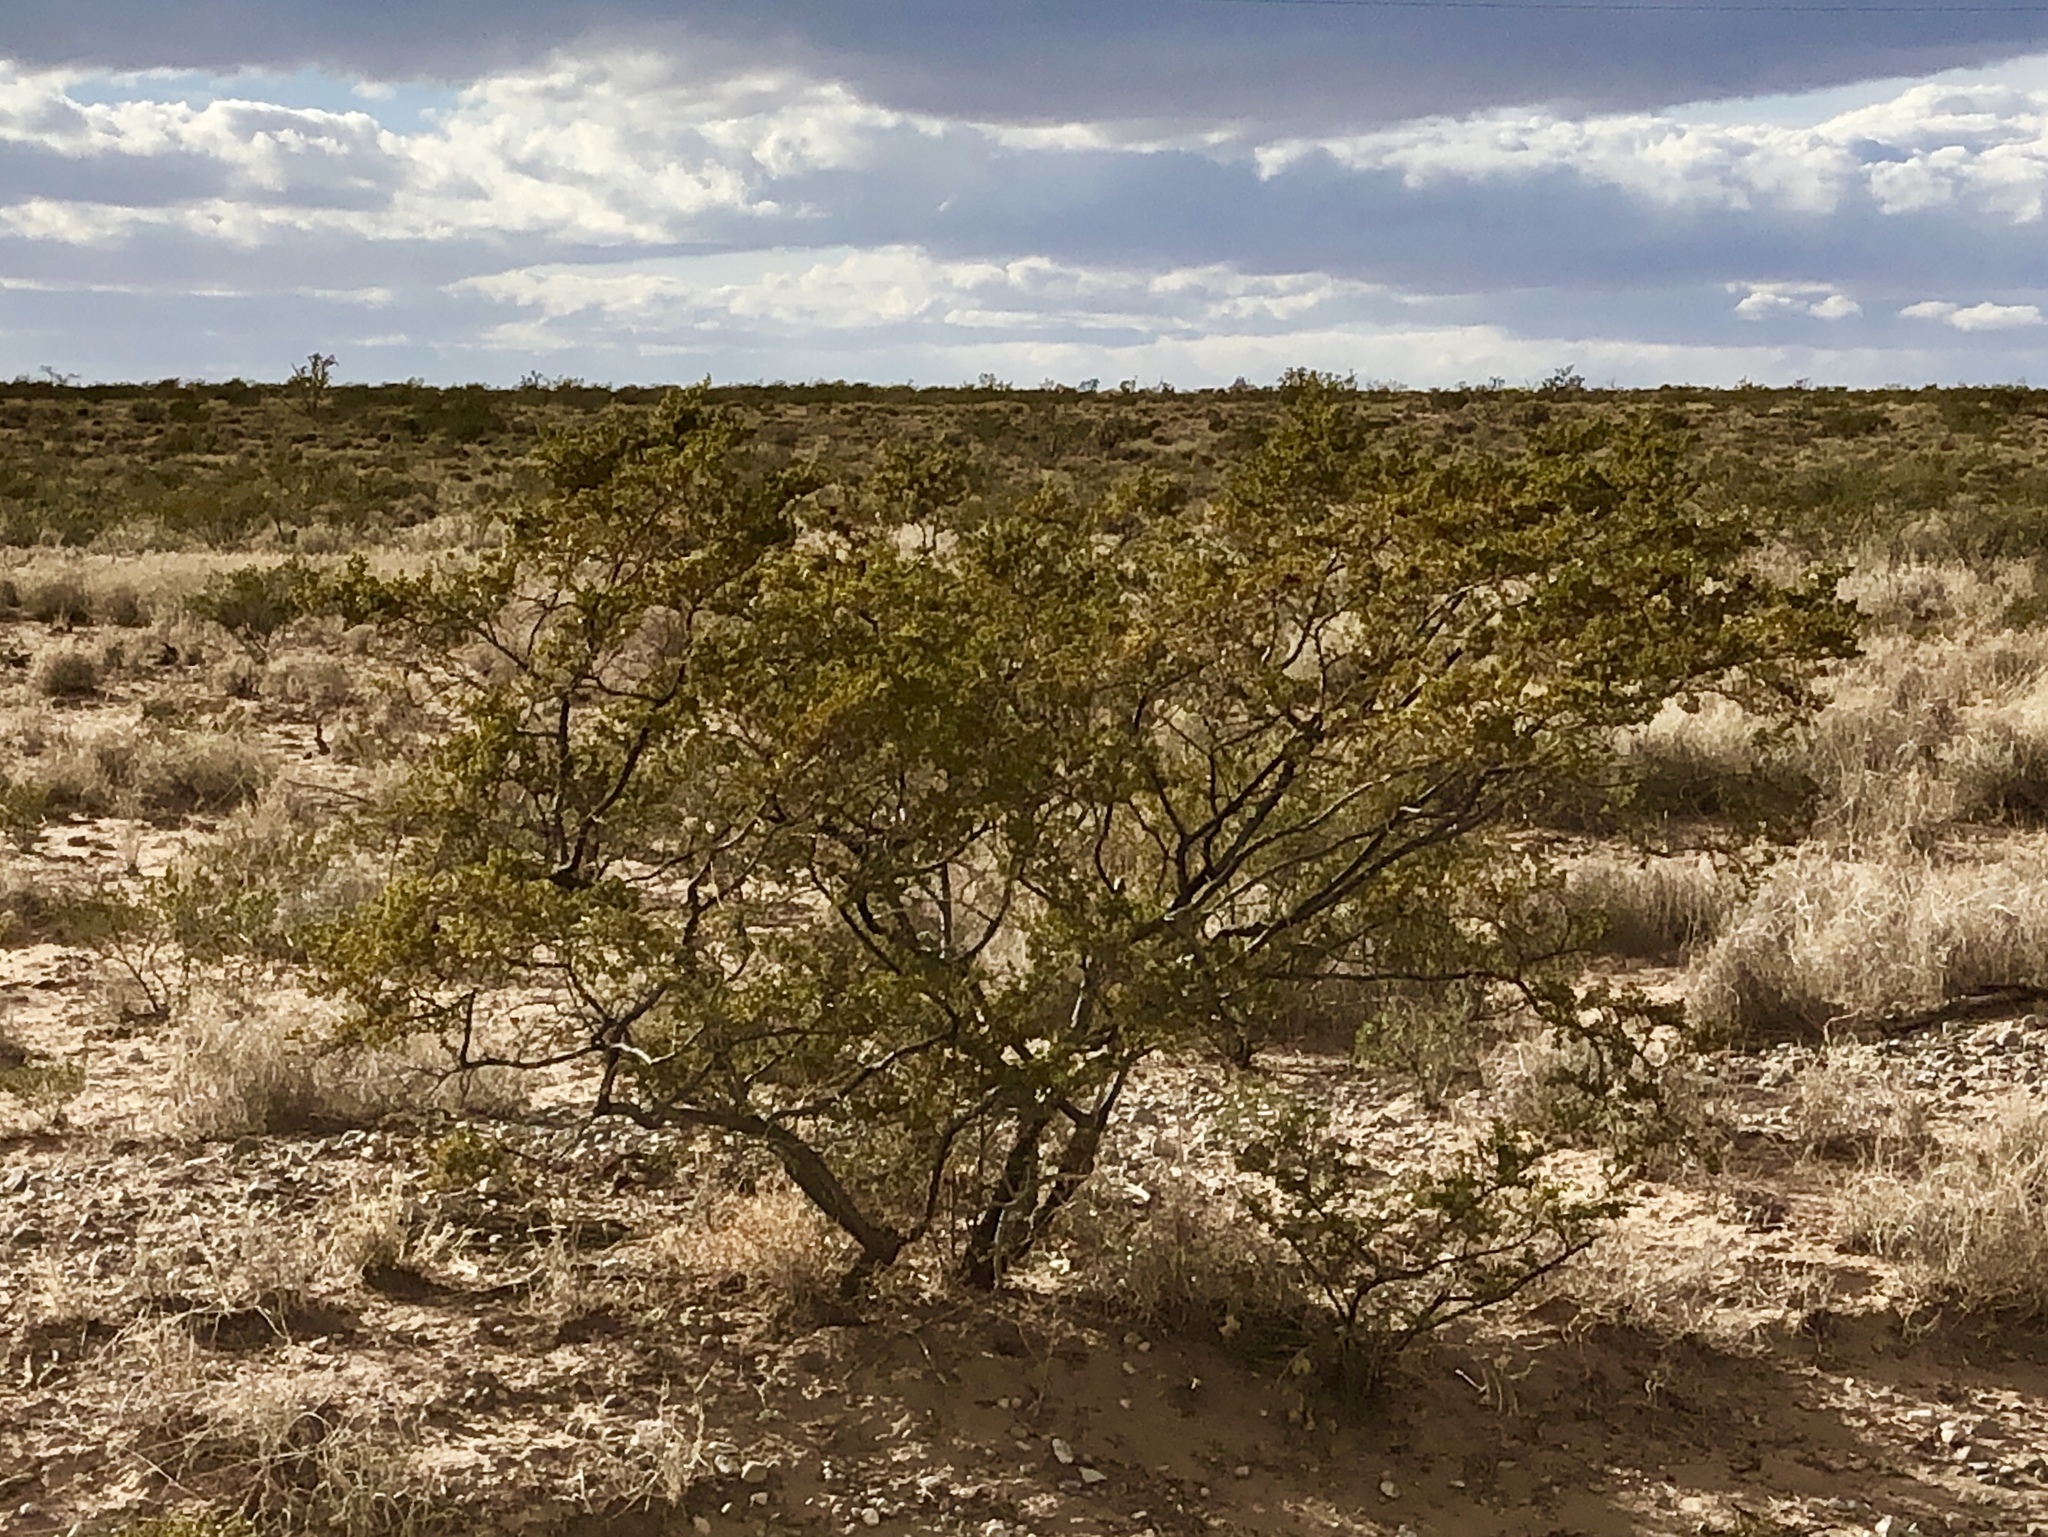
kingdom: Plantae
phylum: Tracheophyta
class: Magnoliopsida
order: Zygophyllales
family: Zygophyllaceae
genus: Larrea
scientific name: Larrea tridentata
